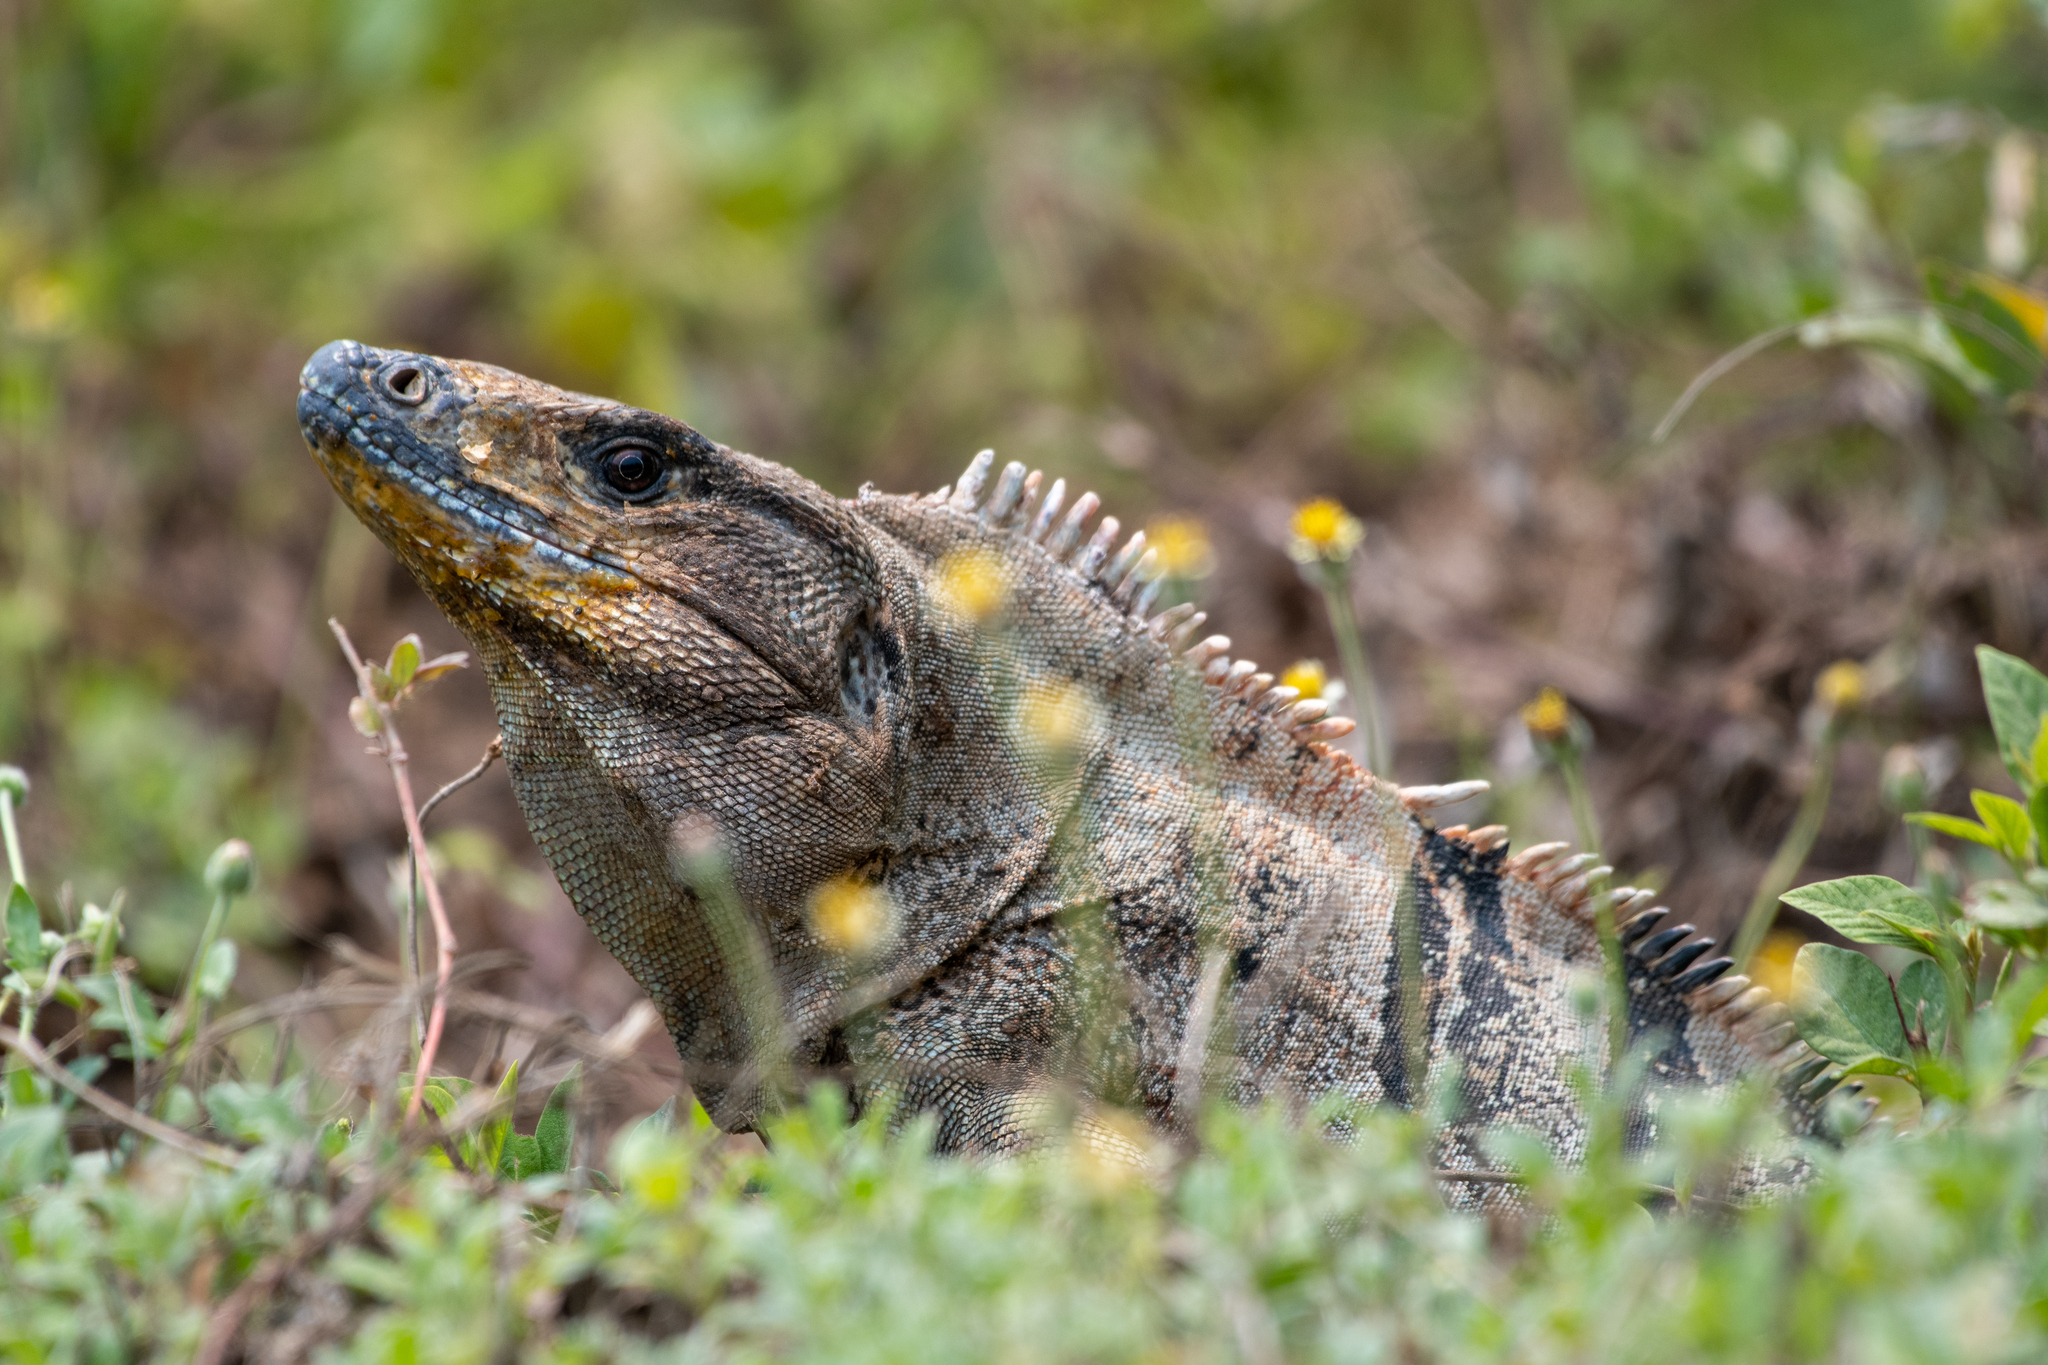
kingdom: Animalia
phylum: Chordata
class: Squamata
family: Iguanidae
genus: Ctenosaura
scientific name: Ctenosaura similis
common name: Black spiny-tailed iguana
